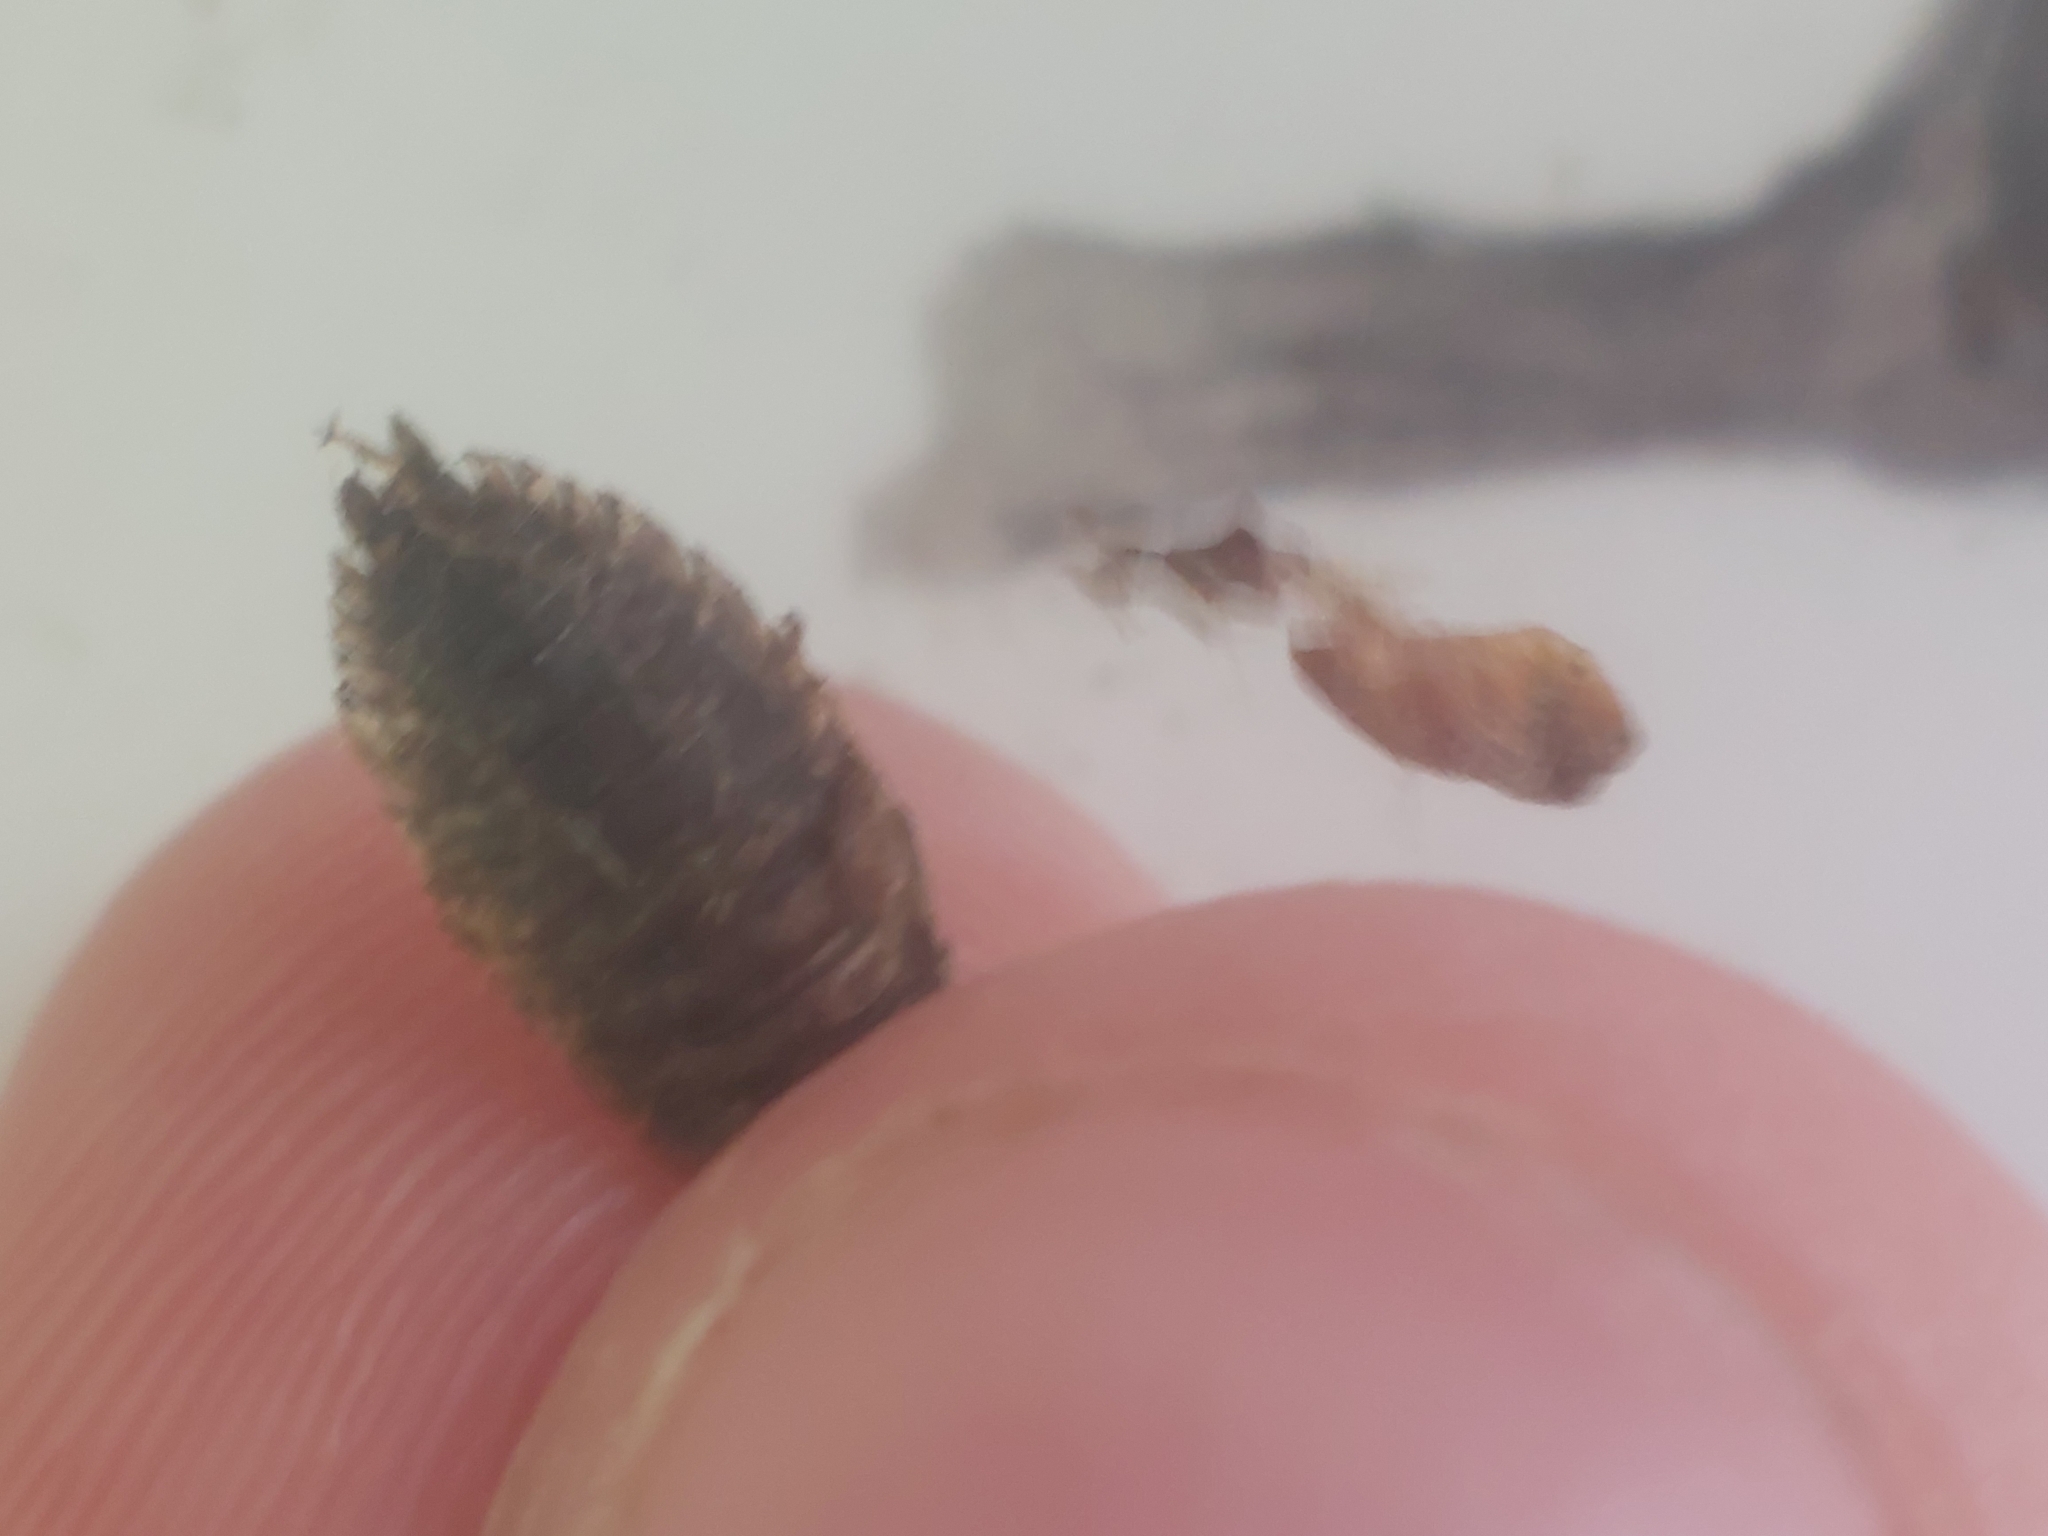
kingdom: Animalia
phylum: Arthropoda
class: Malacostraca
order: Isopoda
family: Porcellionidae
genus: Porcellio
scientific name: Porcellio scaber
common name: Common rough woodlouse
